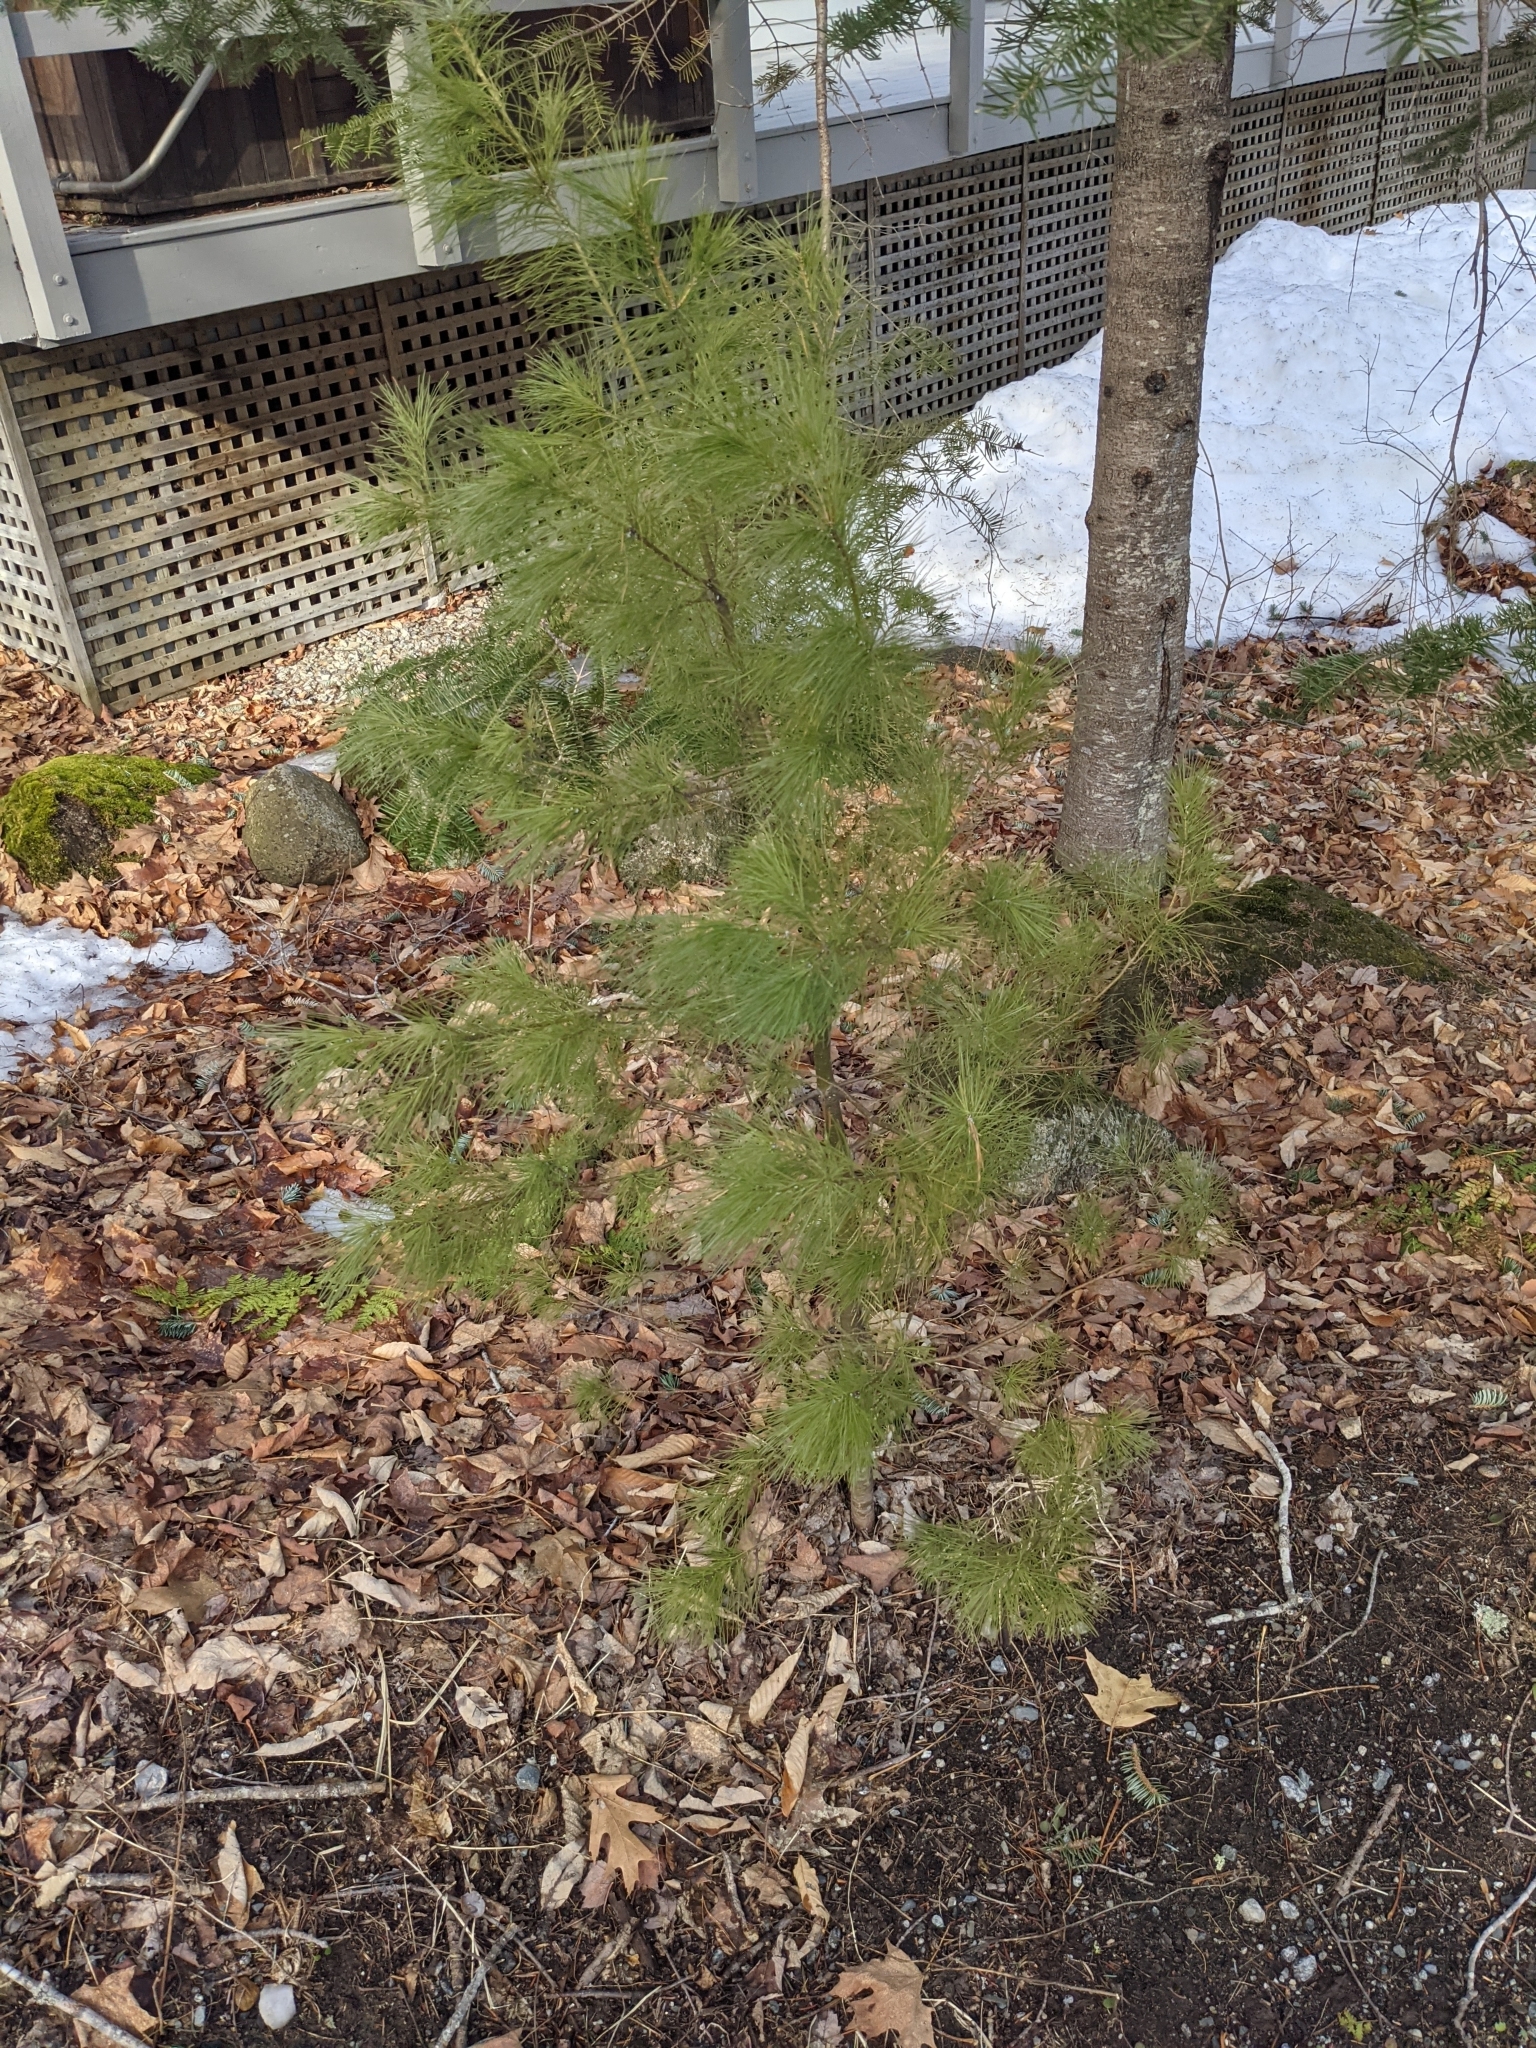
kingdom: Plantae
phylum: Tracheophyta
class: Pinopsida
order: Pinales
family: Pinaceae
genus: Pinus
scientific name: Pinus strobus
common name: Weymouth pine
